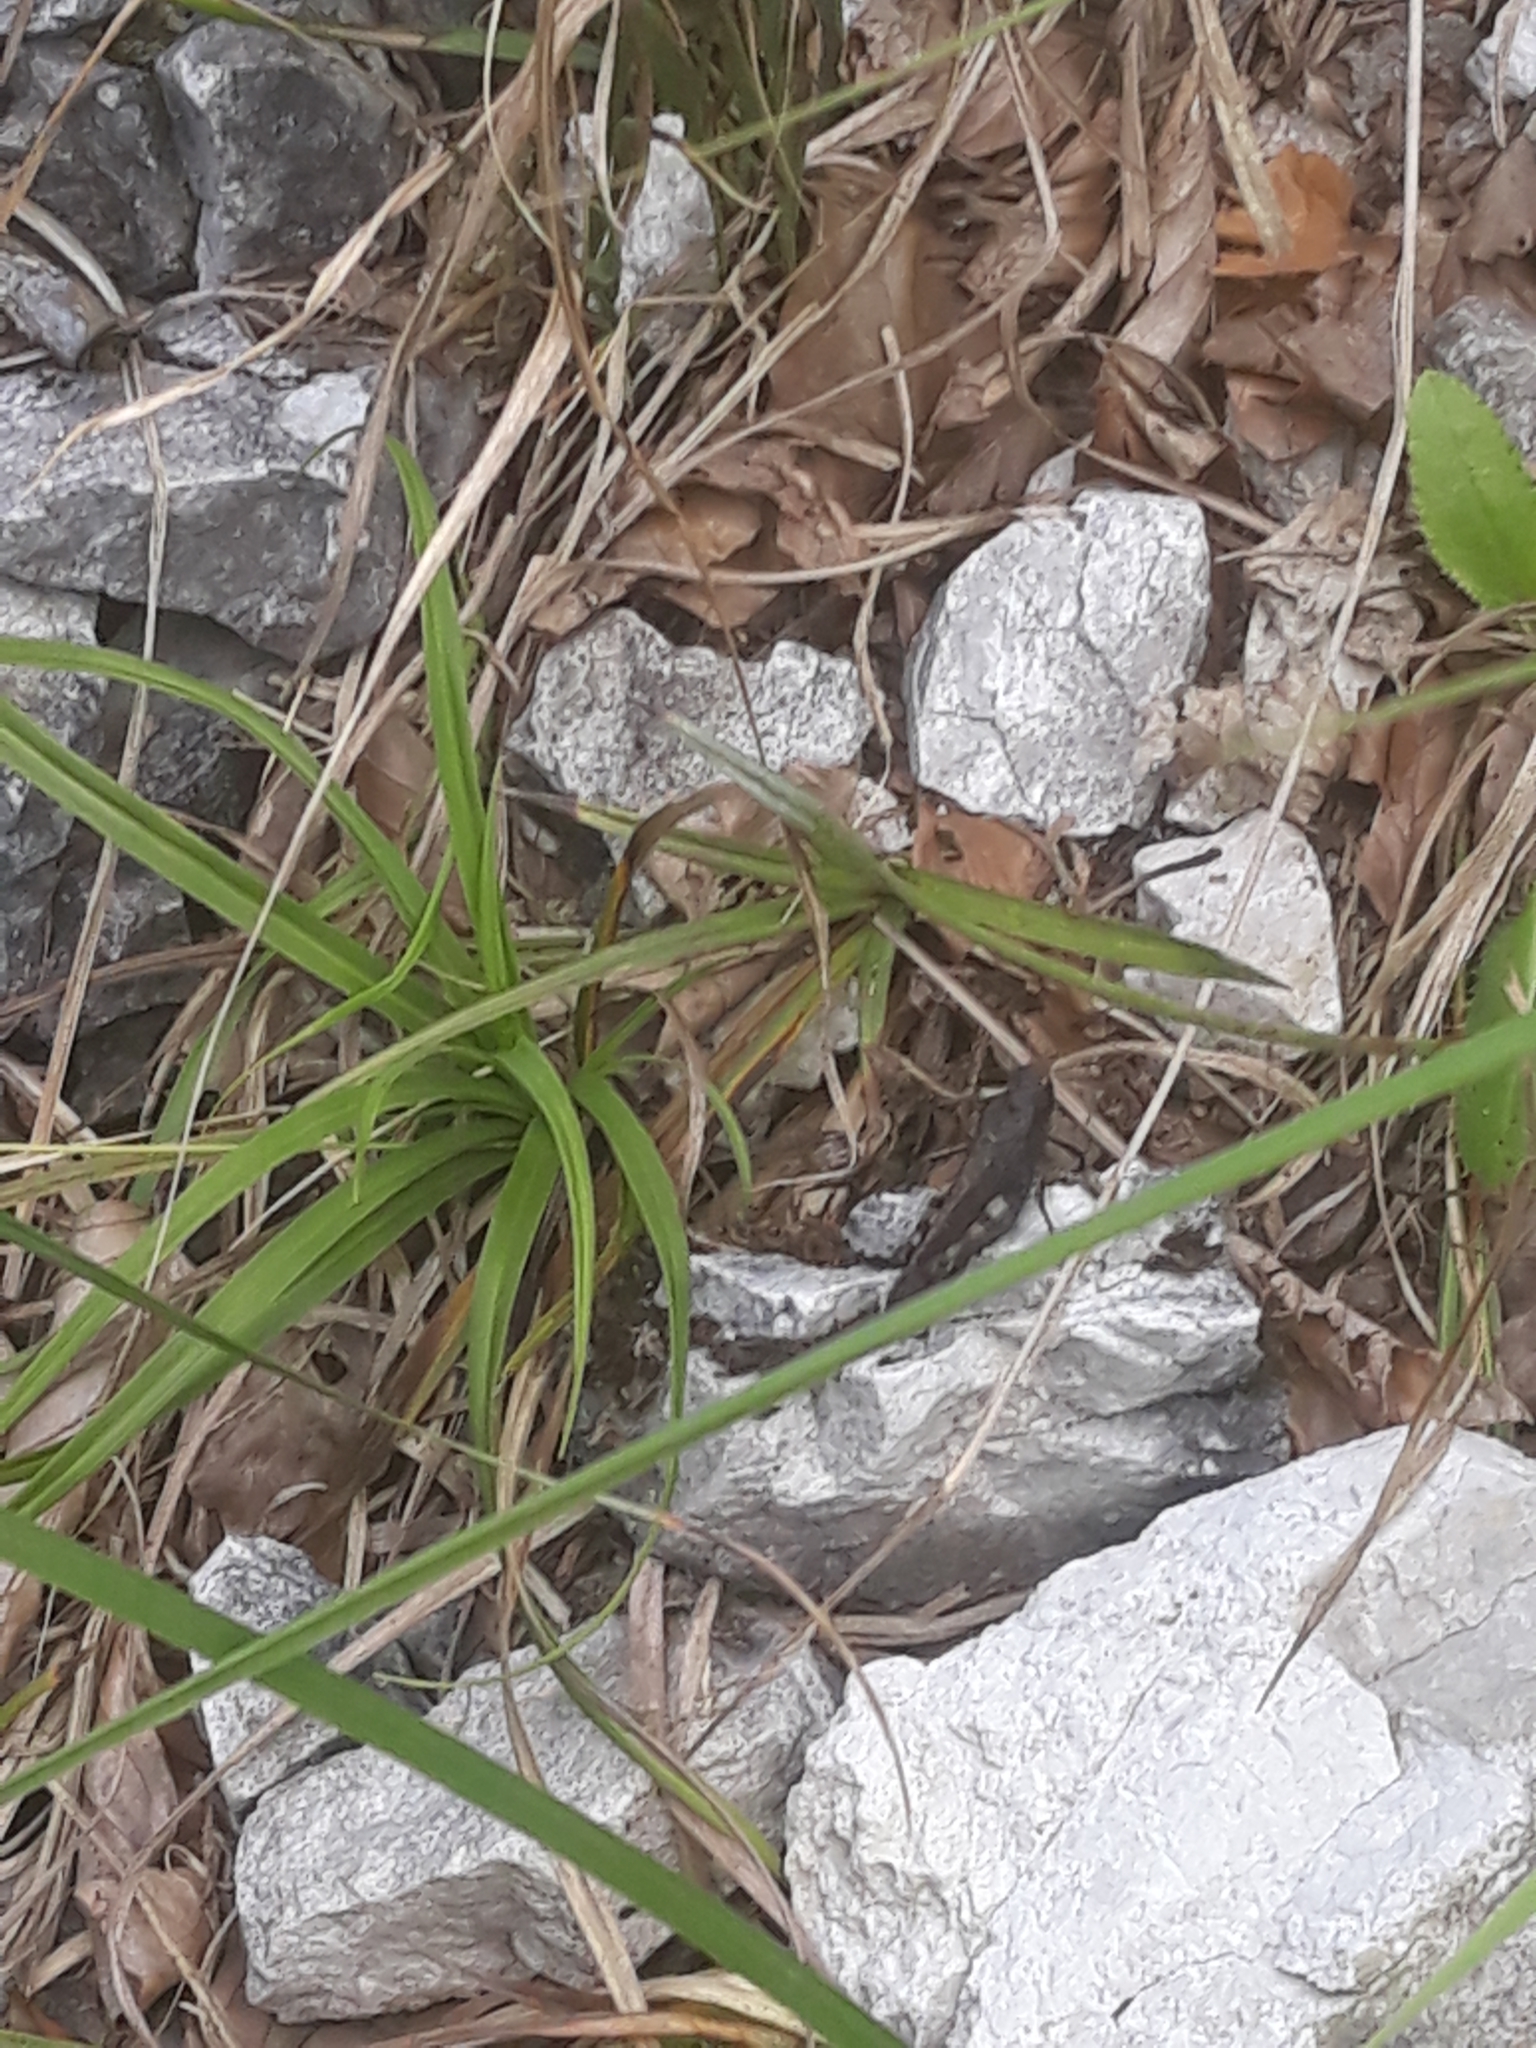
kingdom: Animalia
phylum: Arthropoda
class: Insecta
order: Orthoptera
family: Acrididae
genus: Psophus
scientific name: Psophus stridulus
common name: Rattle grasshopper
